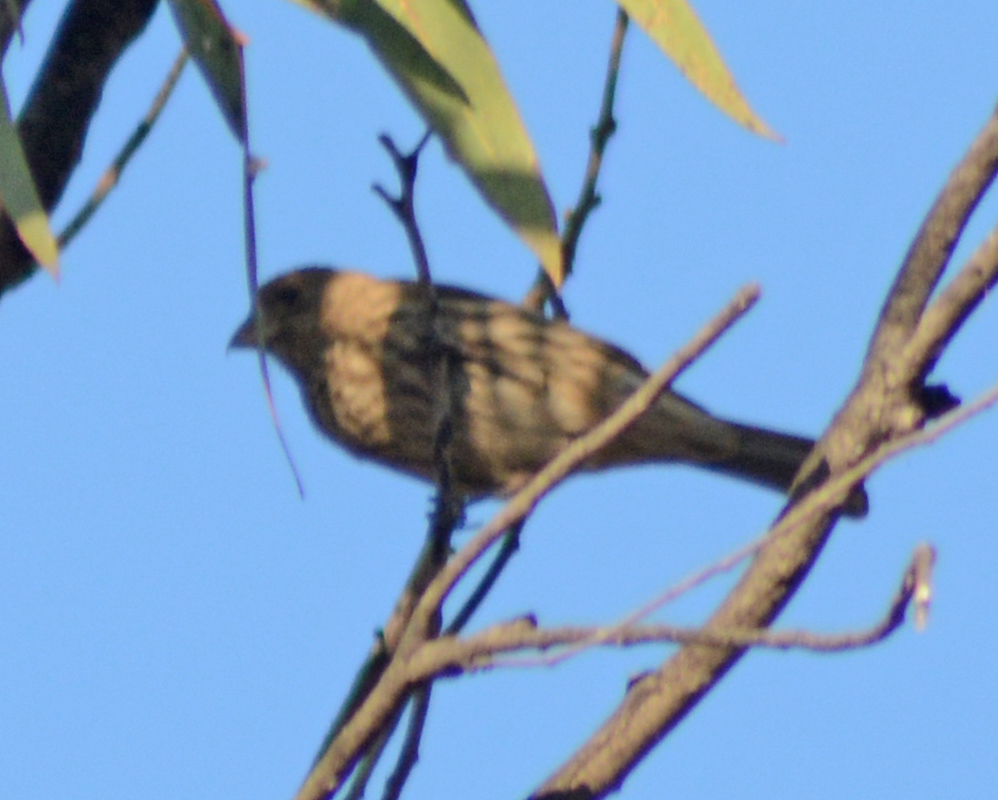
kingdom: Animalia
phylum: Chordata
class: Aves
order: Passeriformes
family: Fringillidae
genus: Haemorhous
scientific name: Haemorhous mexicanus
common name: House finch
